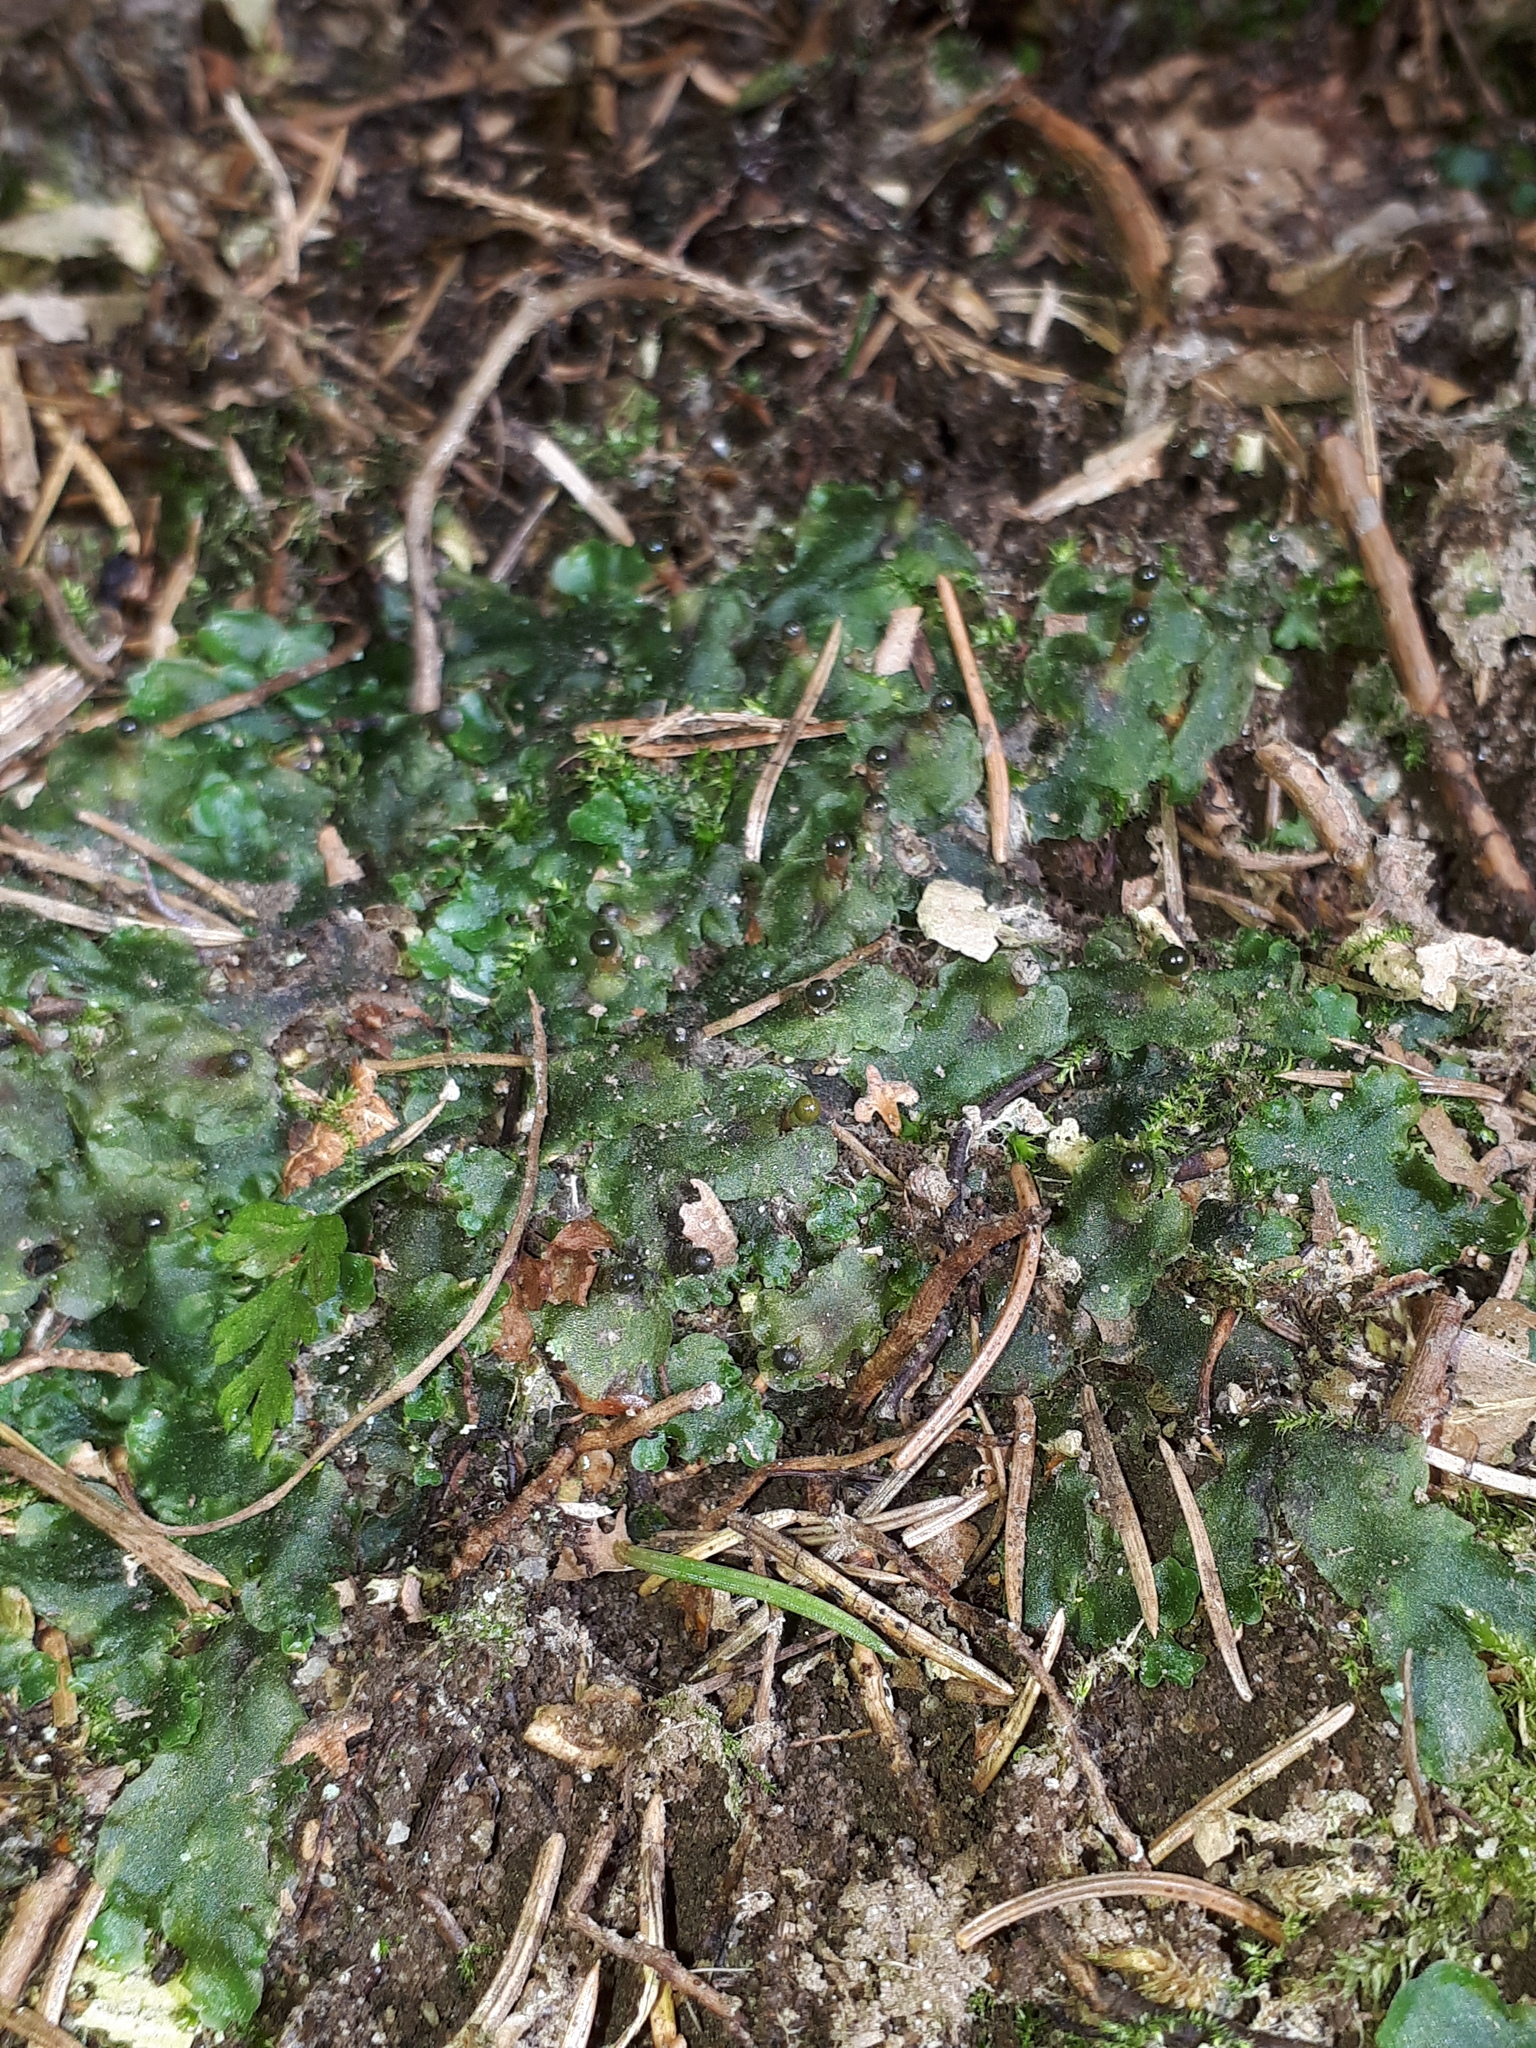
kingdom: Plantae
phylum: Marchantiophyta
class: Jungermanniopsida
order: Pelliales
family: Pelliaceae
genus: Pellia
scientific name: Pellia epiphylla
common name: Common pellia
